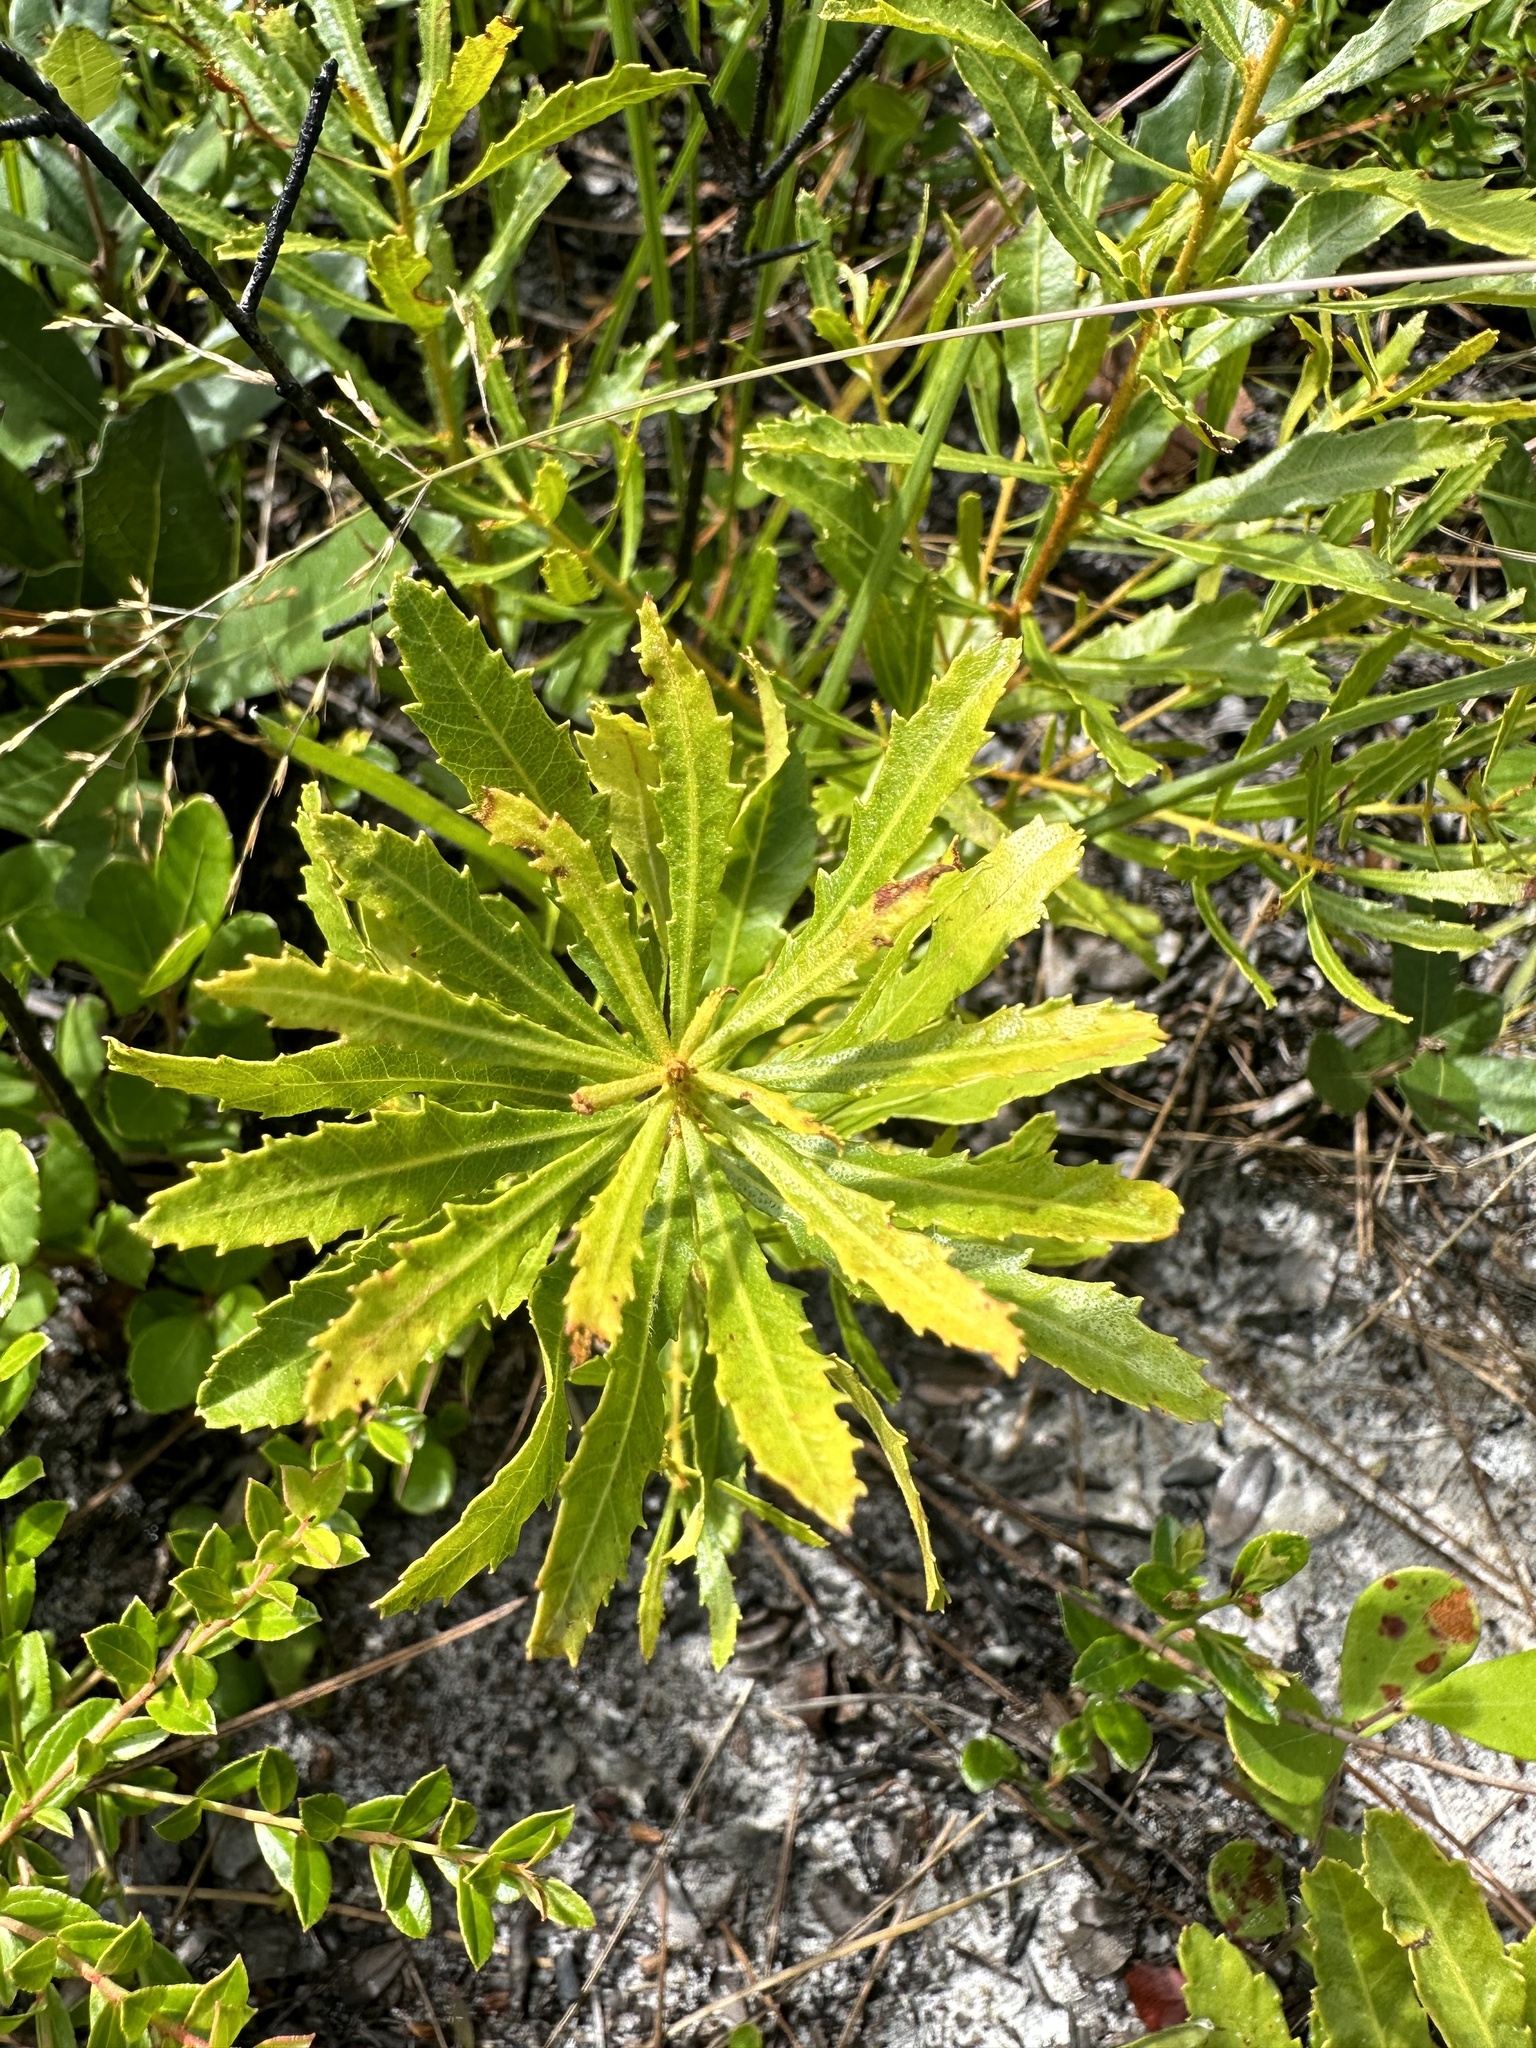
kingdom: Plantae
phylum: Tracheophyta
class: Magnoliopsida
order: Fagales
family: Myricaceae
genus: Morella
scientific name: Morella cerifera
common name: Wax myrtle
